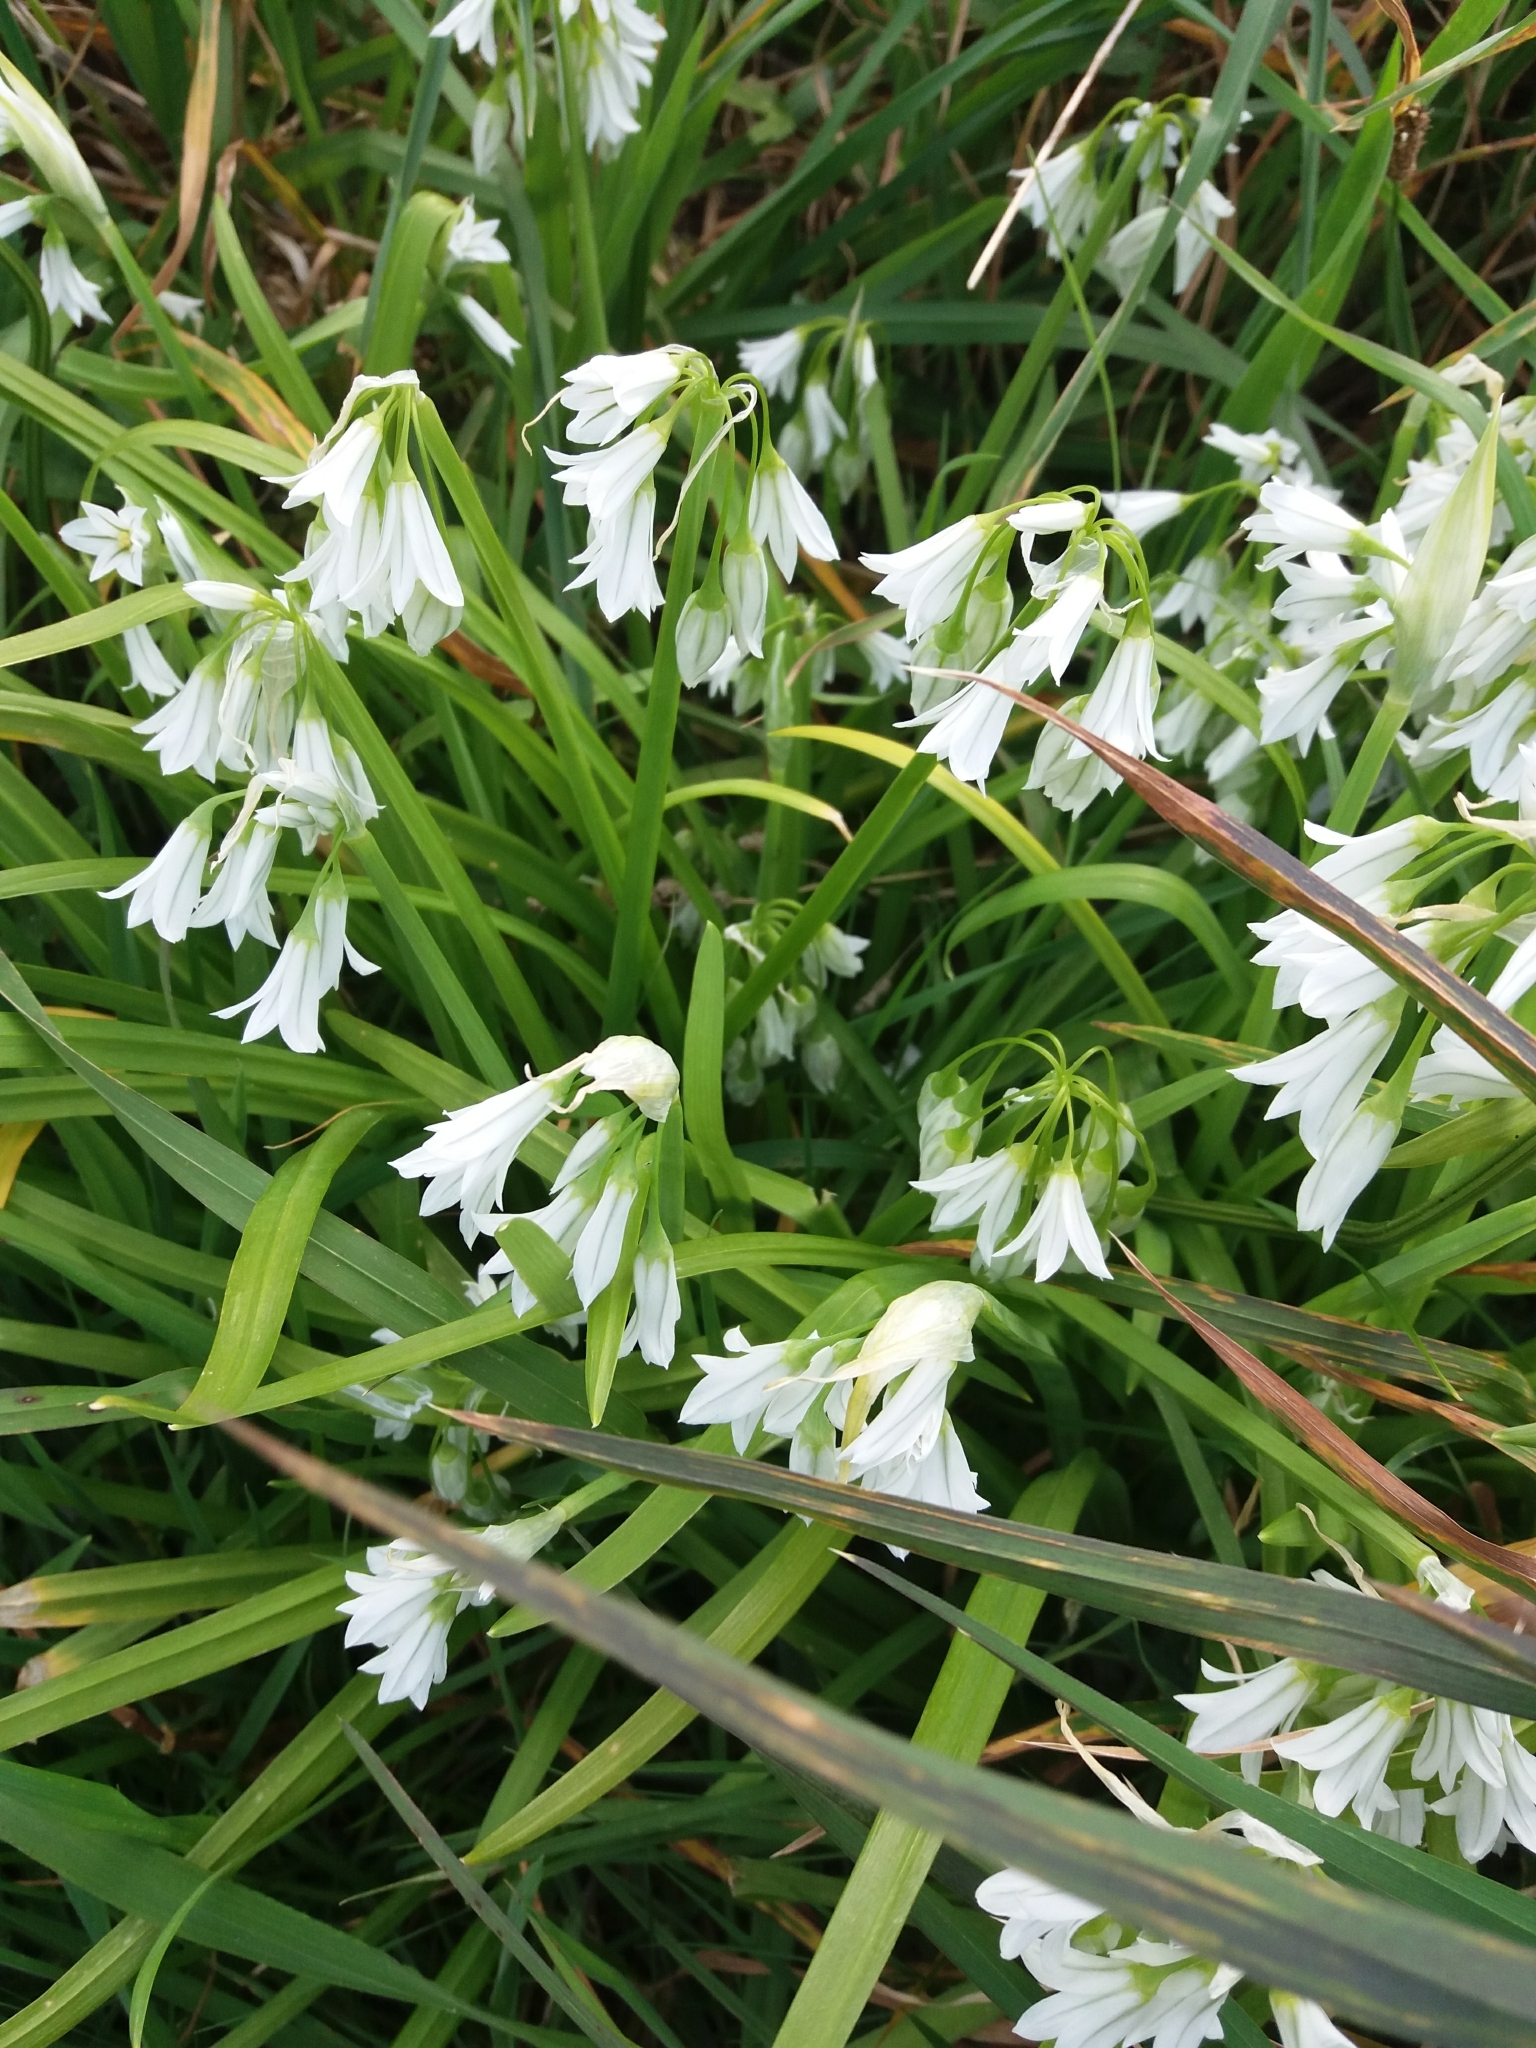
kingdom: Plantae
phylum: Tracheophyta
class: Liliopsida
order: Asparagales
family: Amaryllidaceae
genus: Allium
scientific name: Allium triquetrum
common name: Three-cornered garlic
